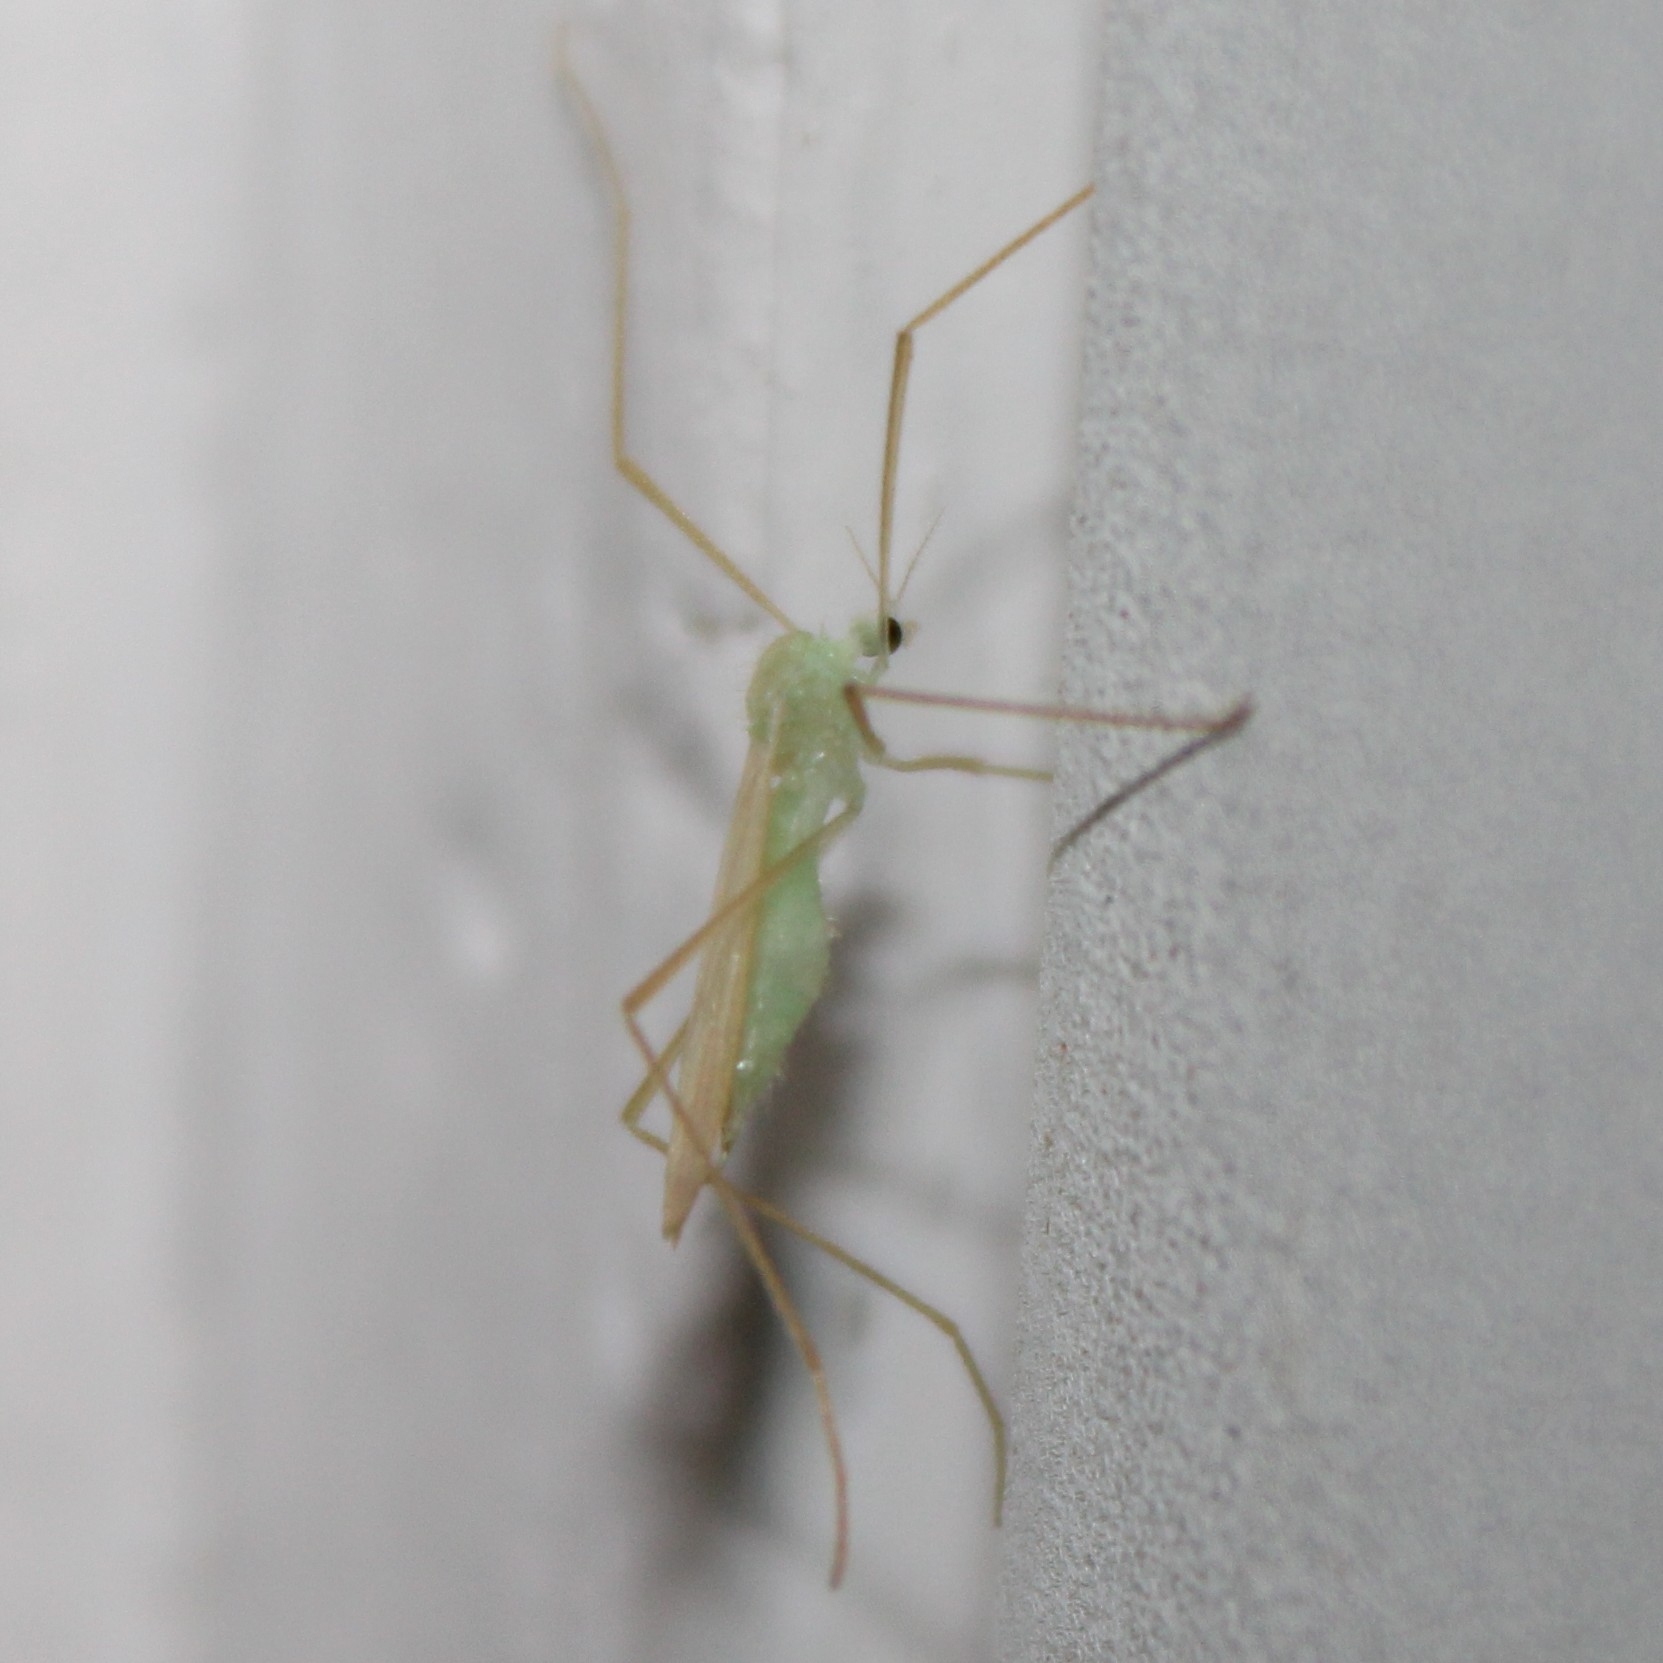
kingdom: Animalia
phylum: Arthropoda
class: Insecta
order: Diptera
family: Limoniidae
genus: Erioptera
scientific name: Erioptera
